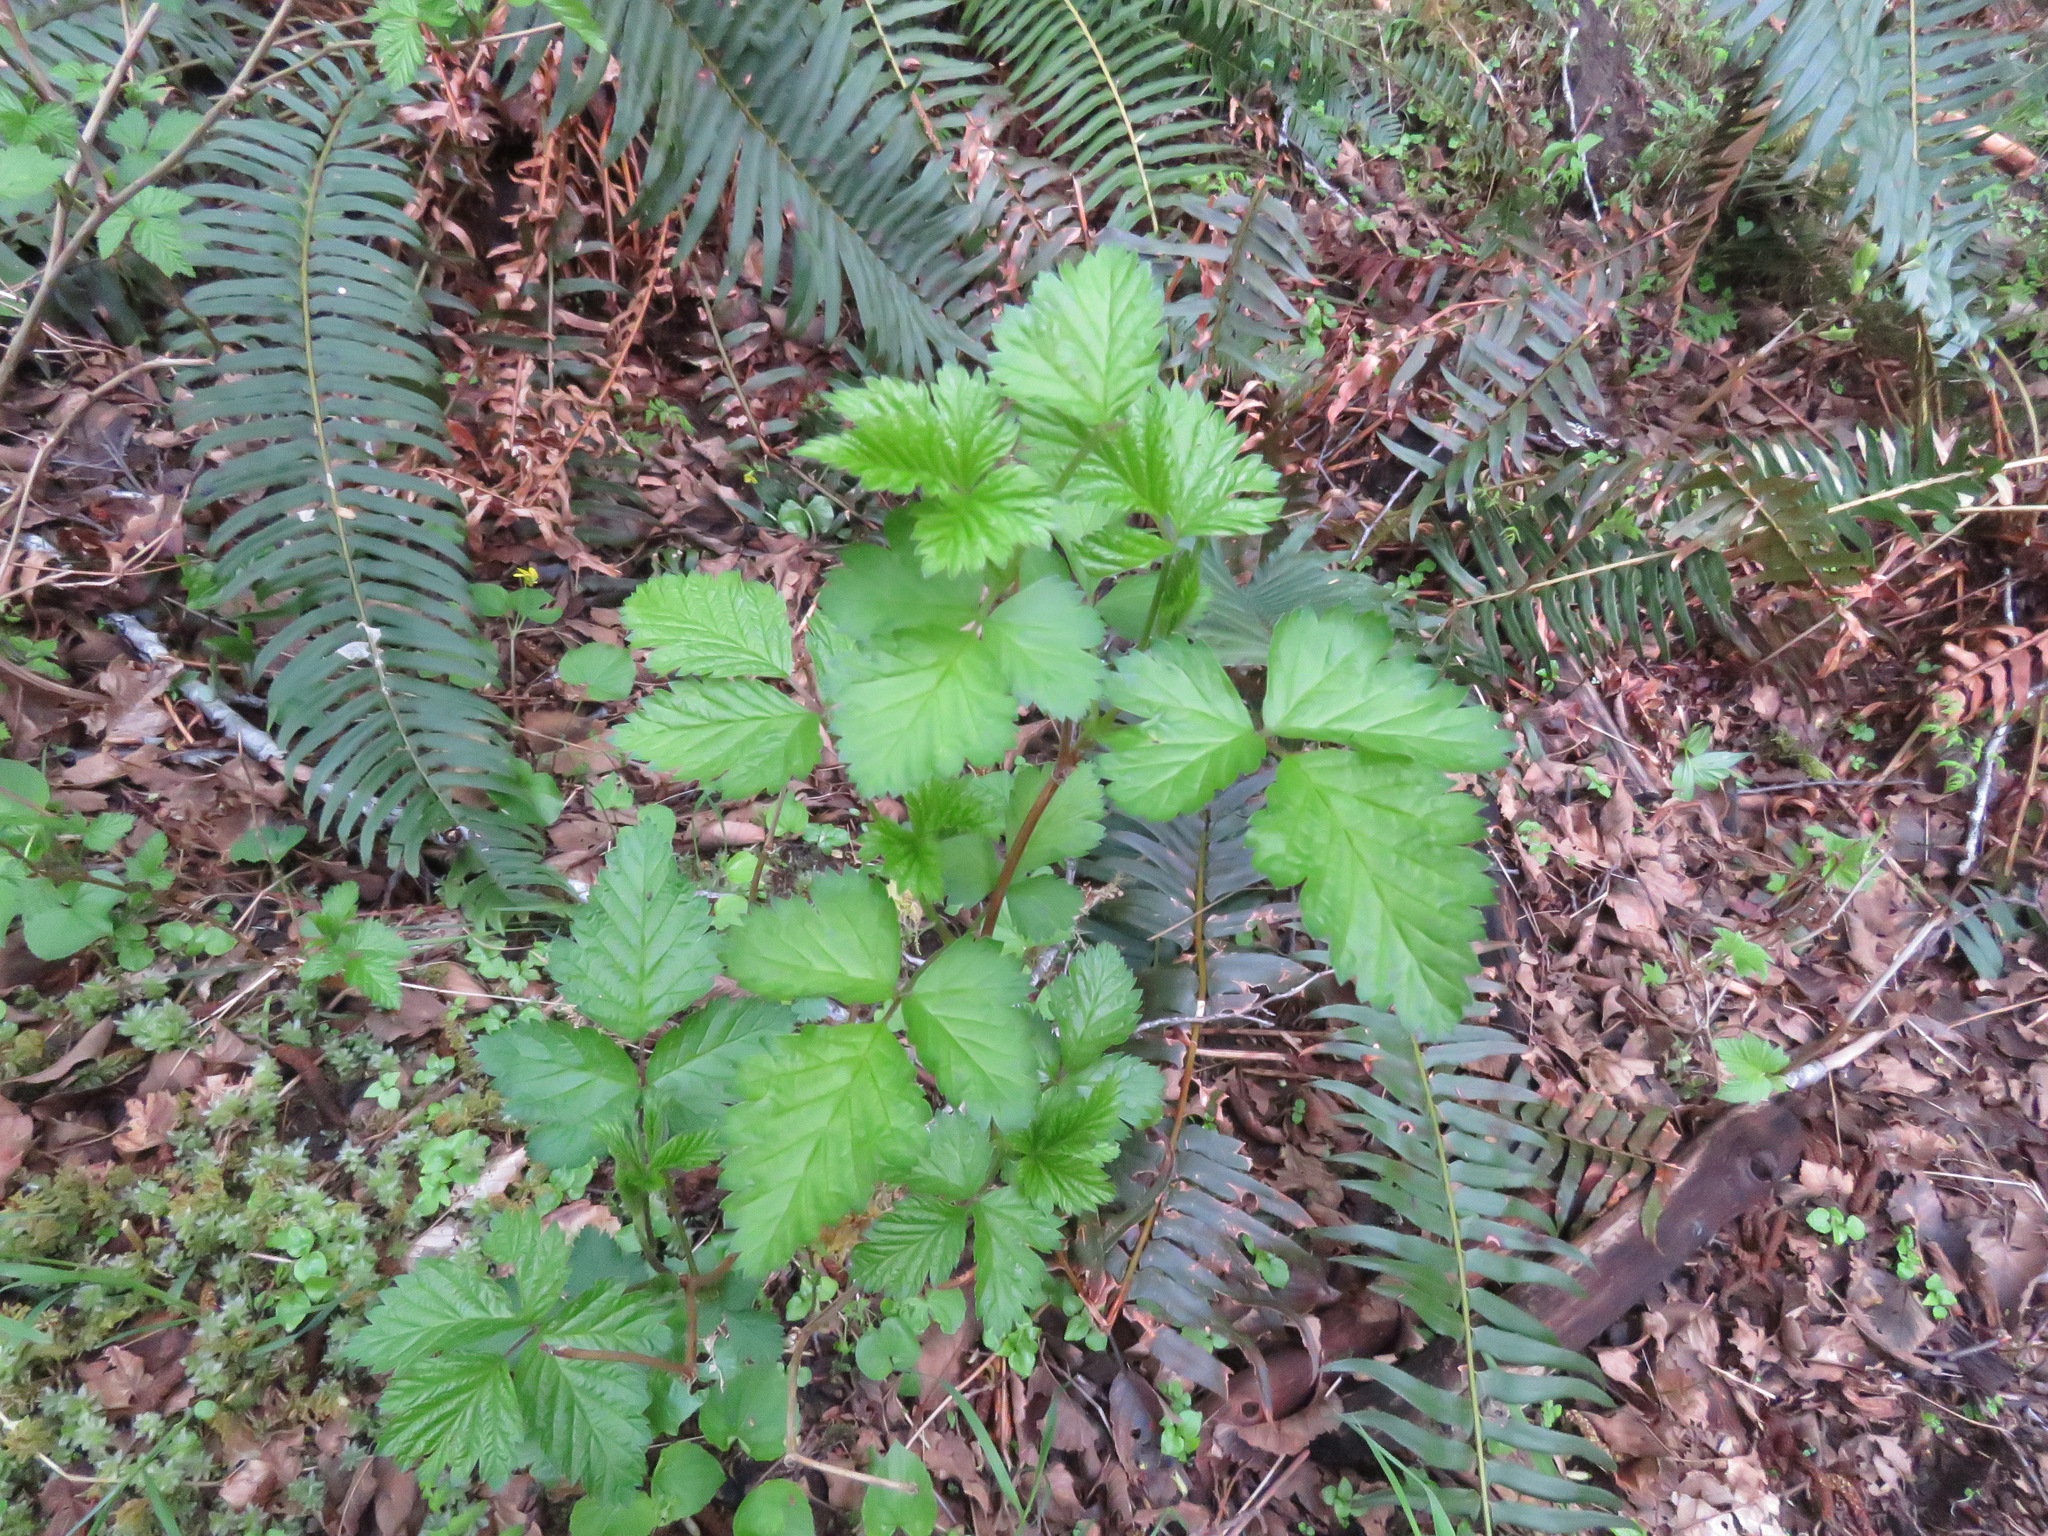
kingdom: Plantae
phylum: Tracheophyta
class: Magnoliopsida
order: Rosales
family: Rosaceae
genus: Rubus
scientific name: Rubus spectabilis
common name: Salmonberry
